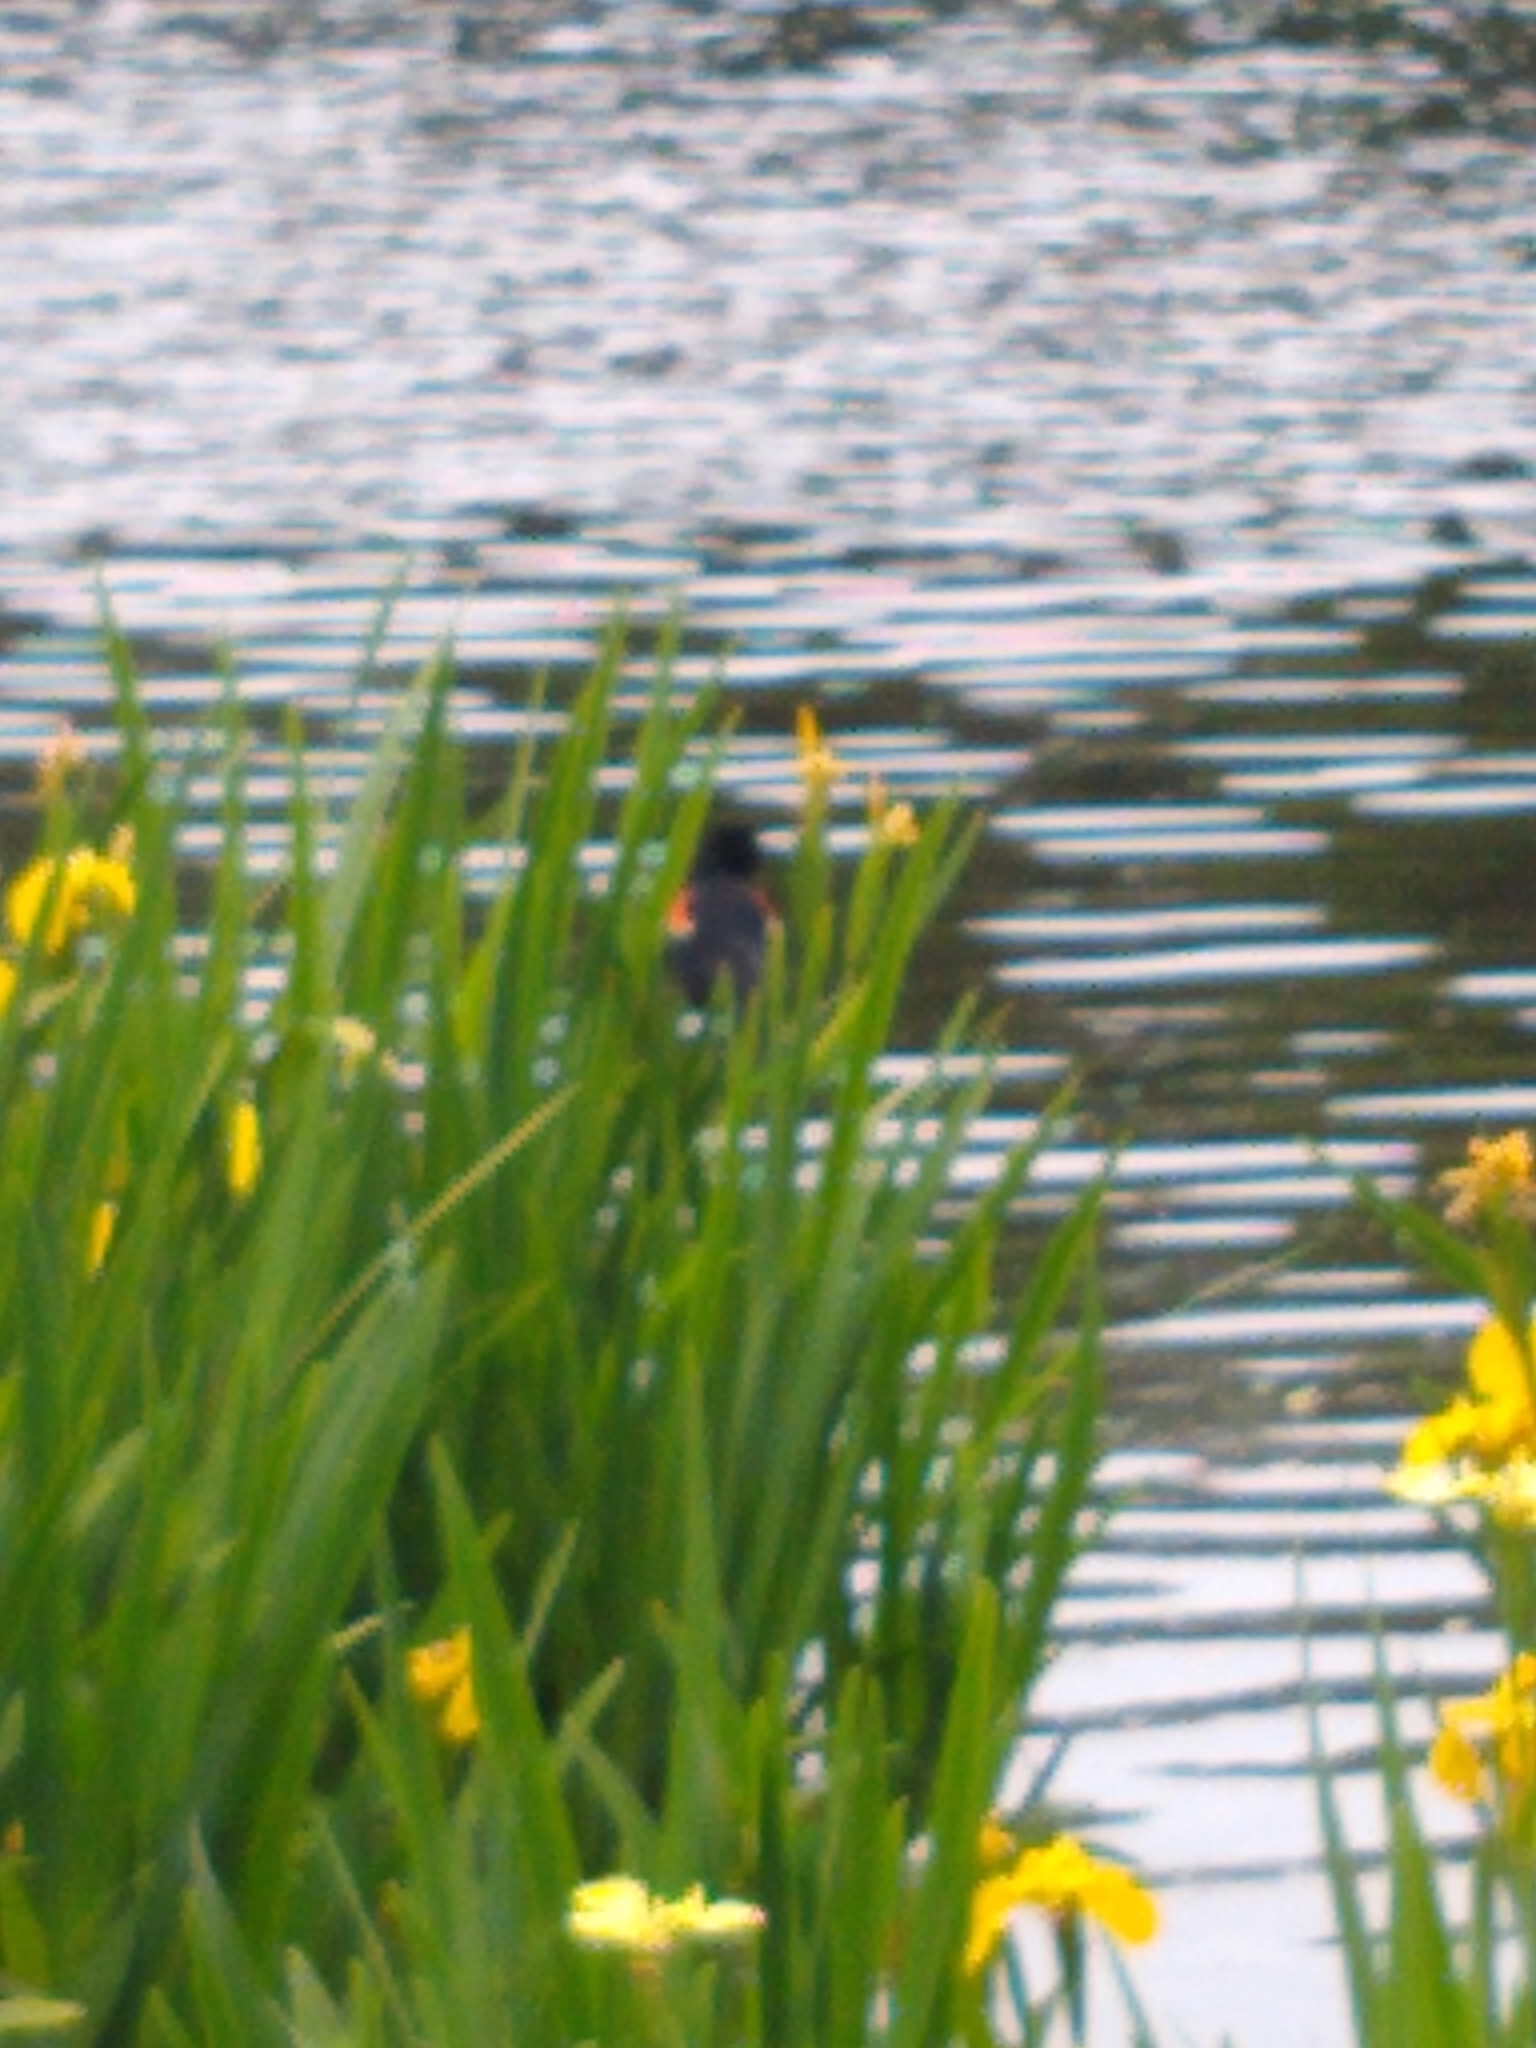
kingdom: Animalia
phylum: Chordata
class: Aves
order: Passeriformes
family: Icteridae
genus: Agelaius
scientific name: Agelaius phoeniceus
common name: Red-winged blackbird
